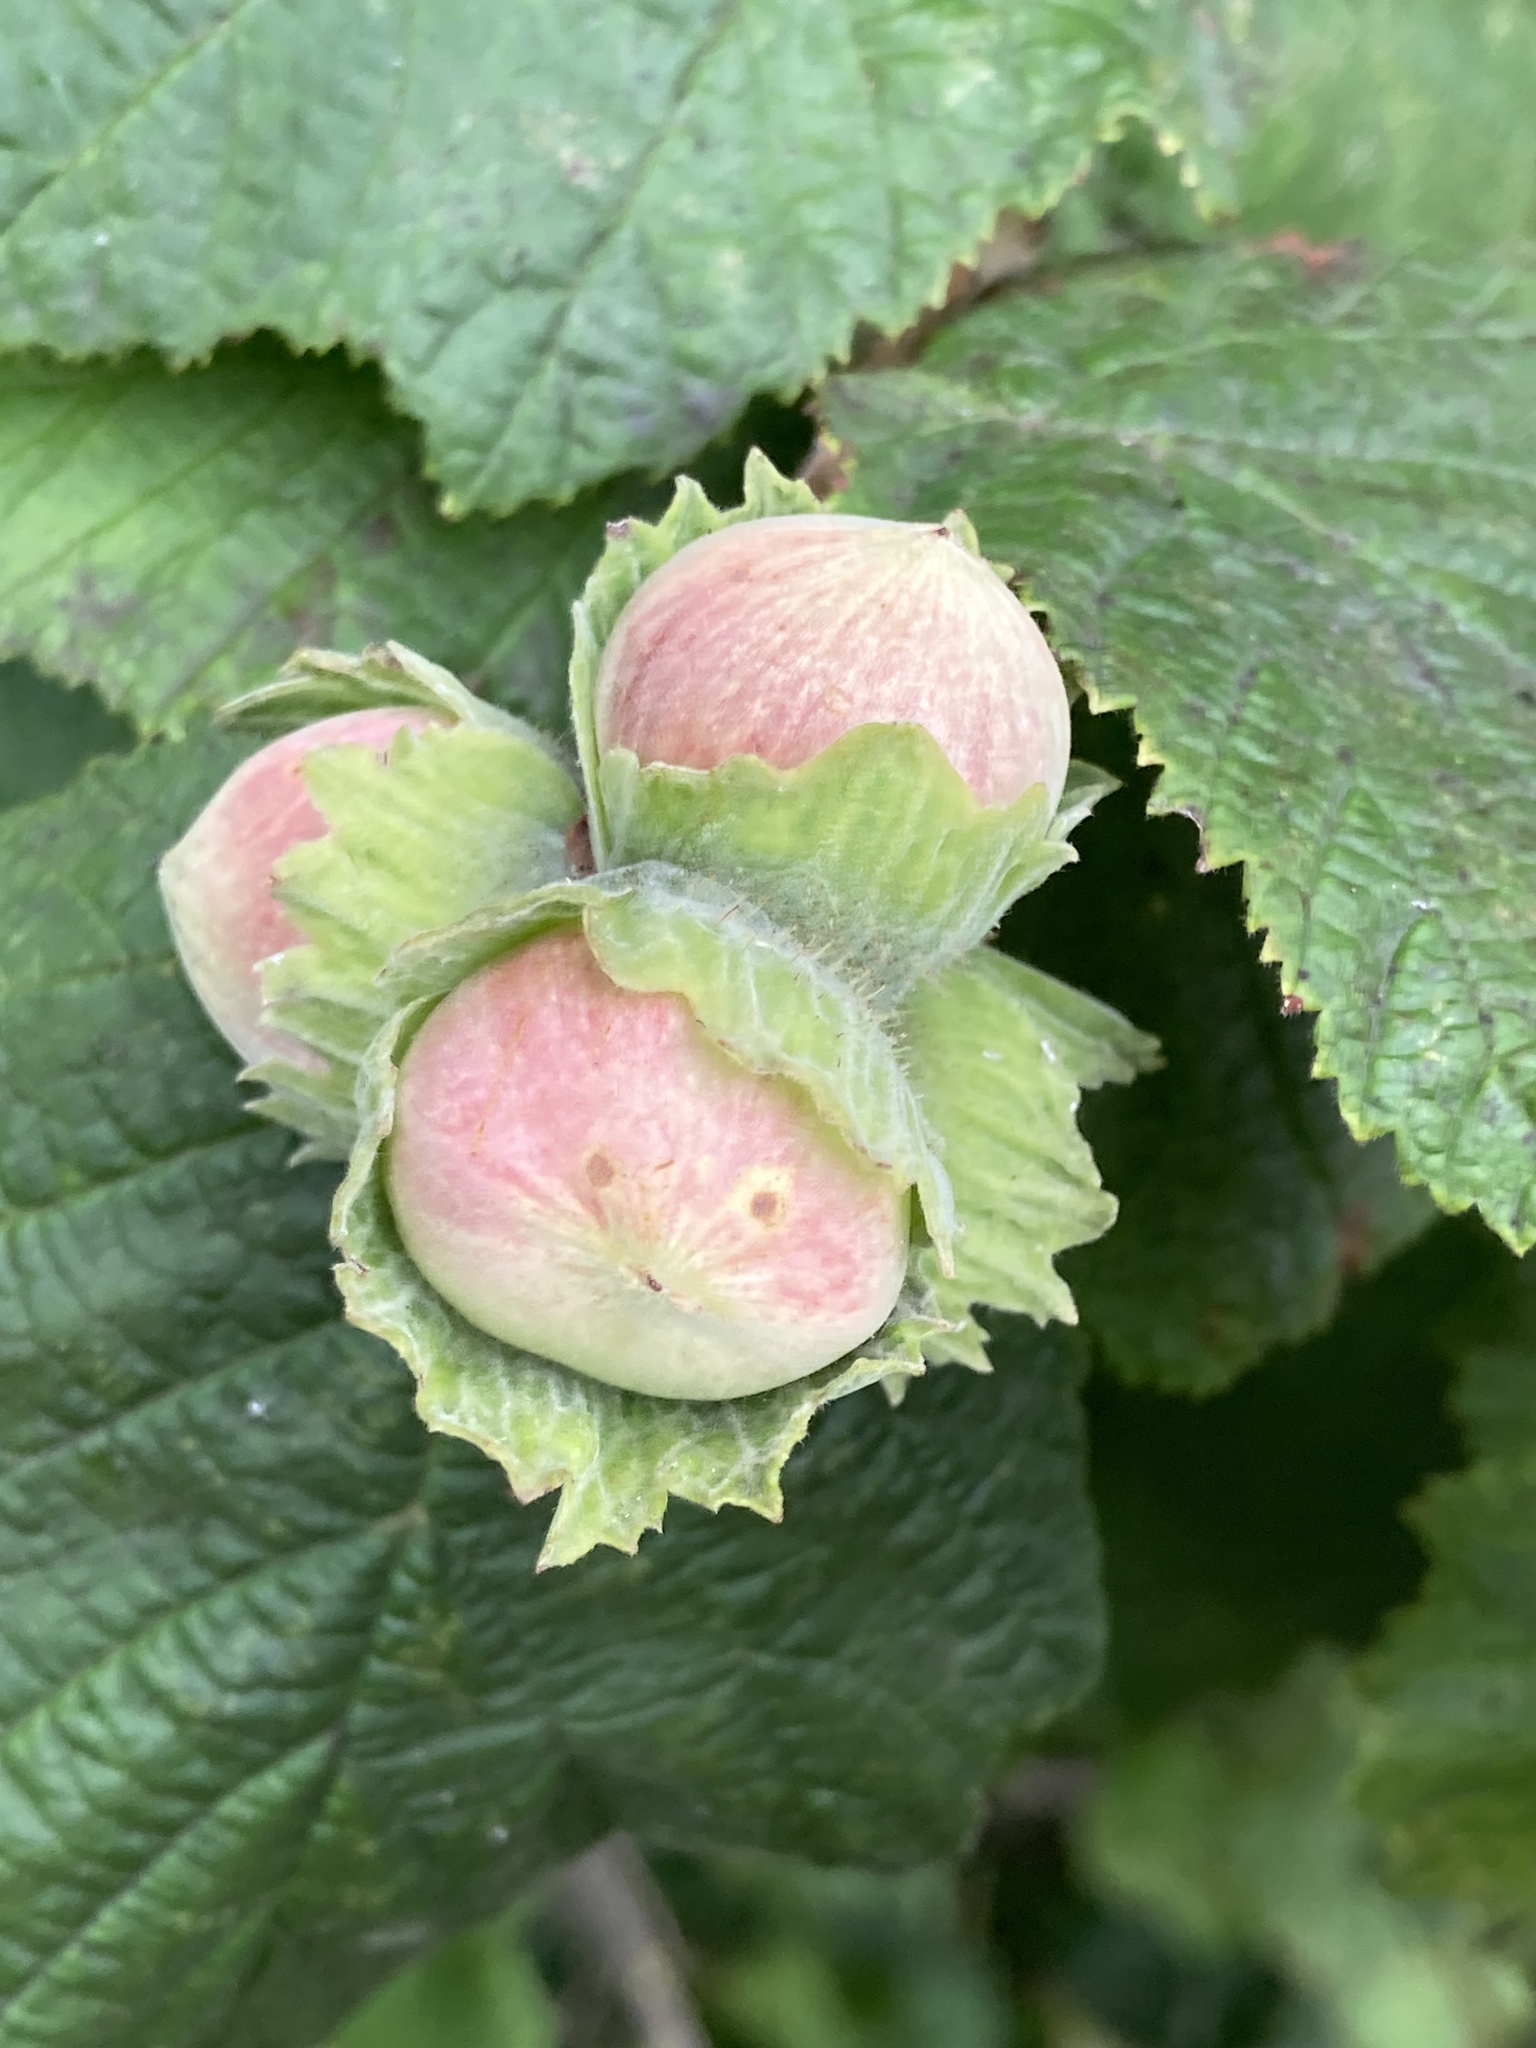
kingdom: Plantae
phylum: Tracheophyta
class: Magnoliopsida
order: Fagales
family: Betulaceae
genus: Corylus
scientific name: Corylus avellana
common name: European hazel
